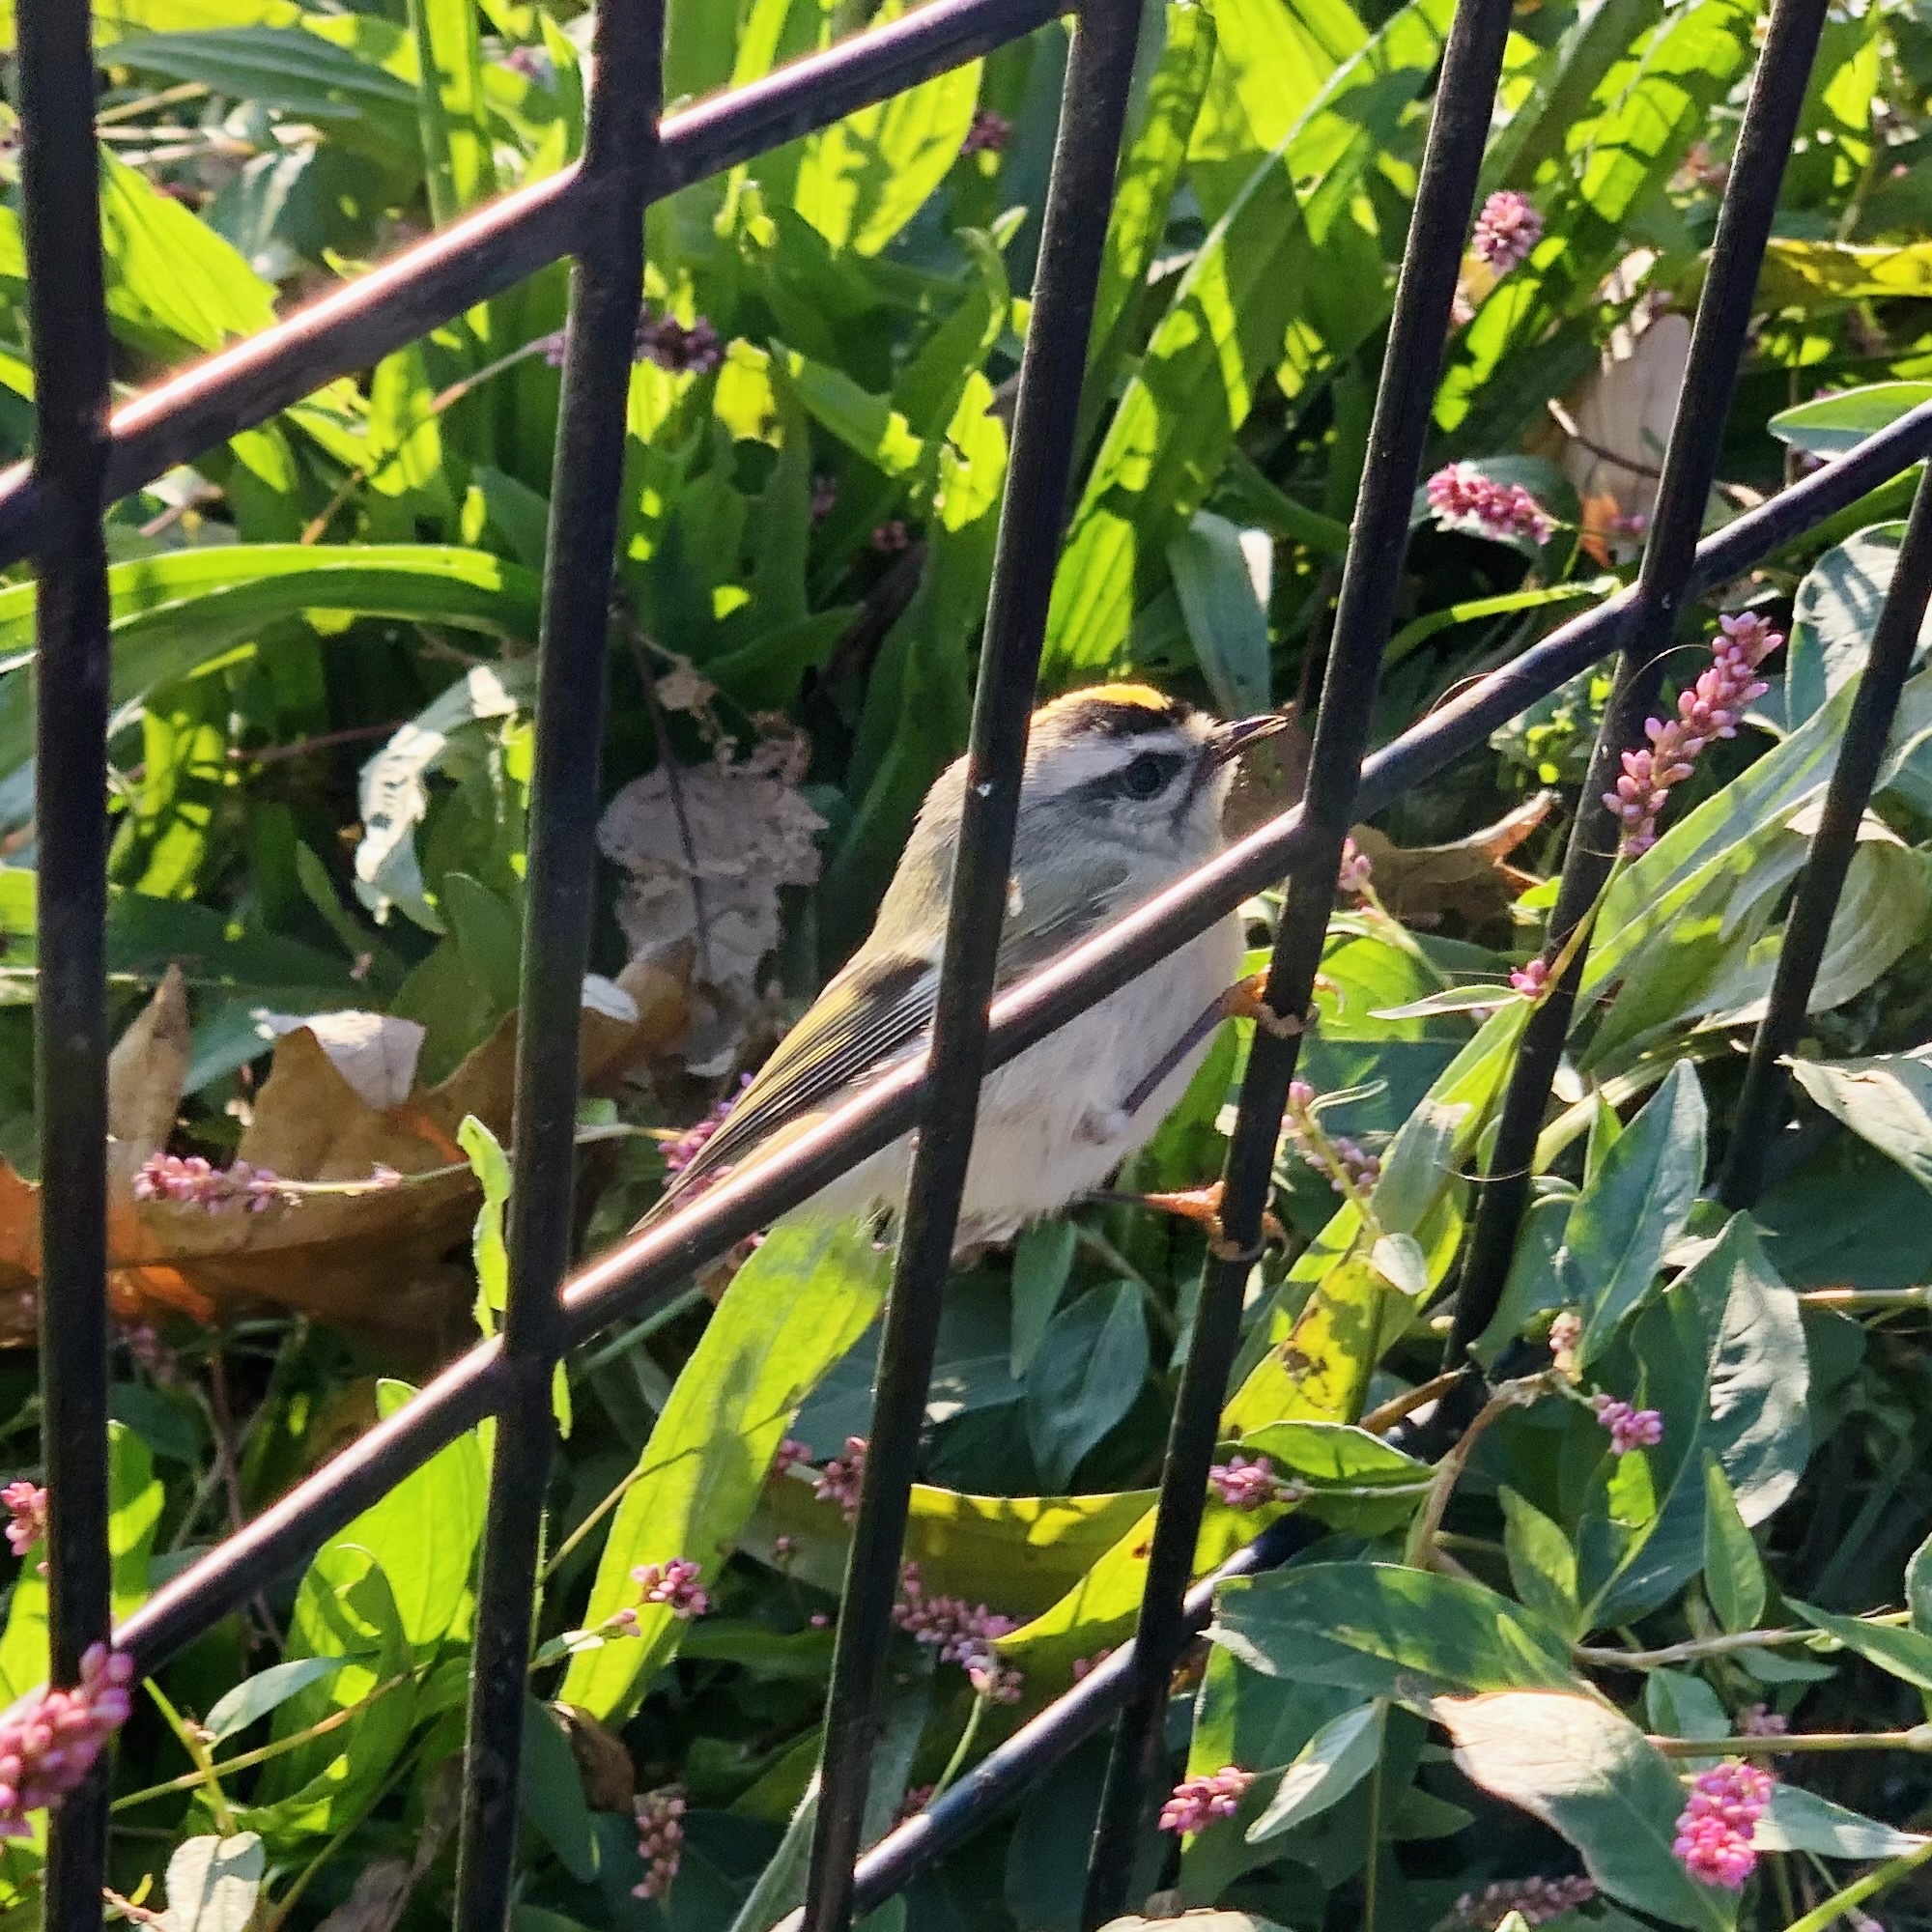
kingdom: Animalia
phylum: Chordata
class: Aves
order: Passeriformes
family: Regulidae
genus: Regulus
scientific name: Regulus satrapa
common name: Golden-crowned kinglet
